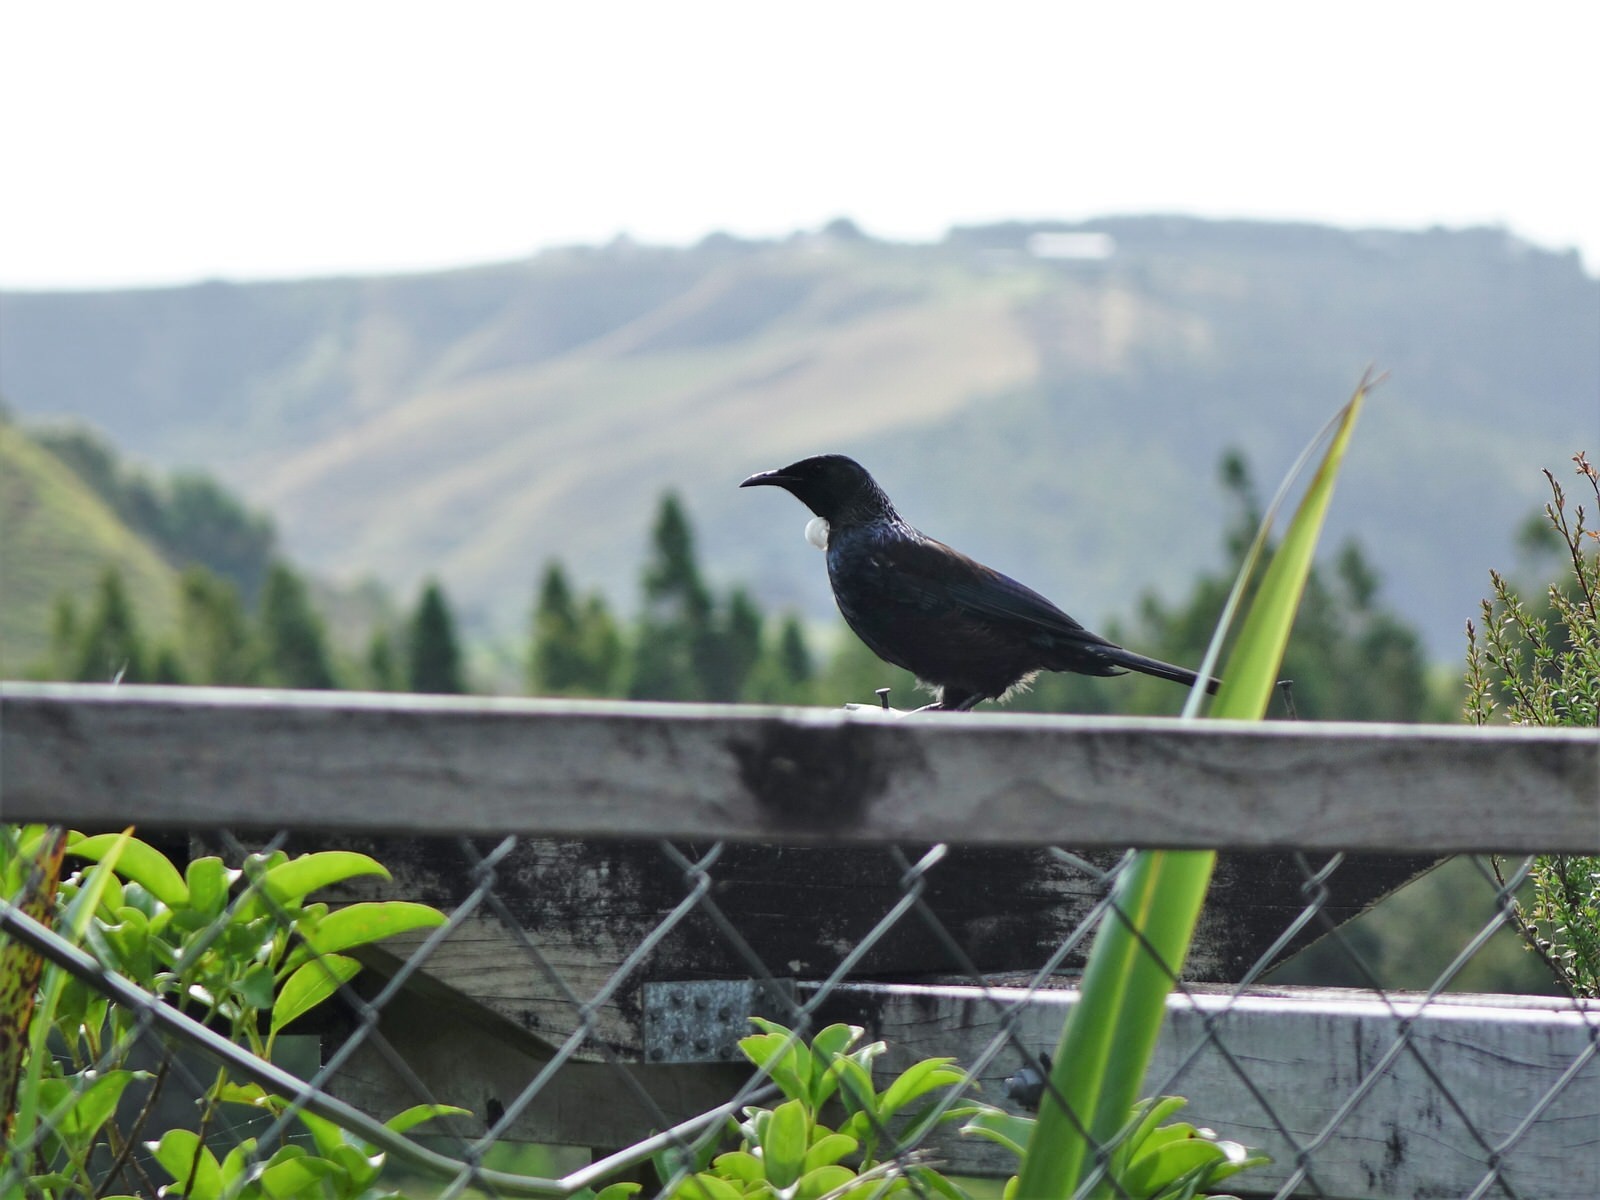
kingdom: Animalia
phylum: Chordata
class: Aves
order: Passeriformes
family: Meliphagidae
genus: Prosthemadera
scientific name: Prosthemadera novaeseelandiae
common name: Tui
